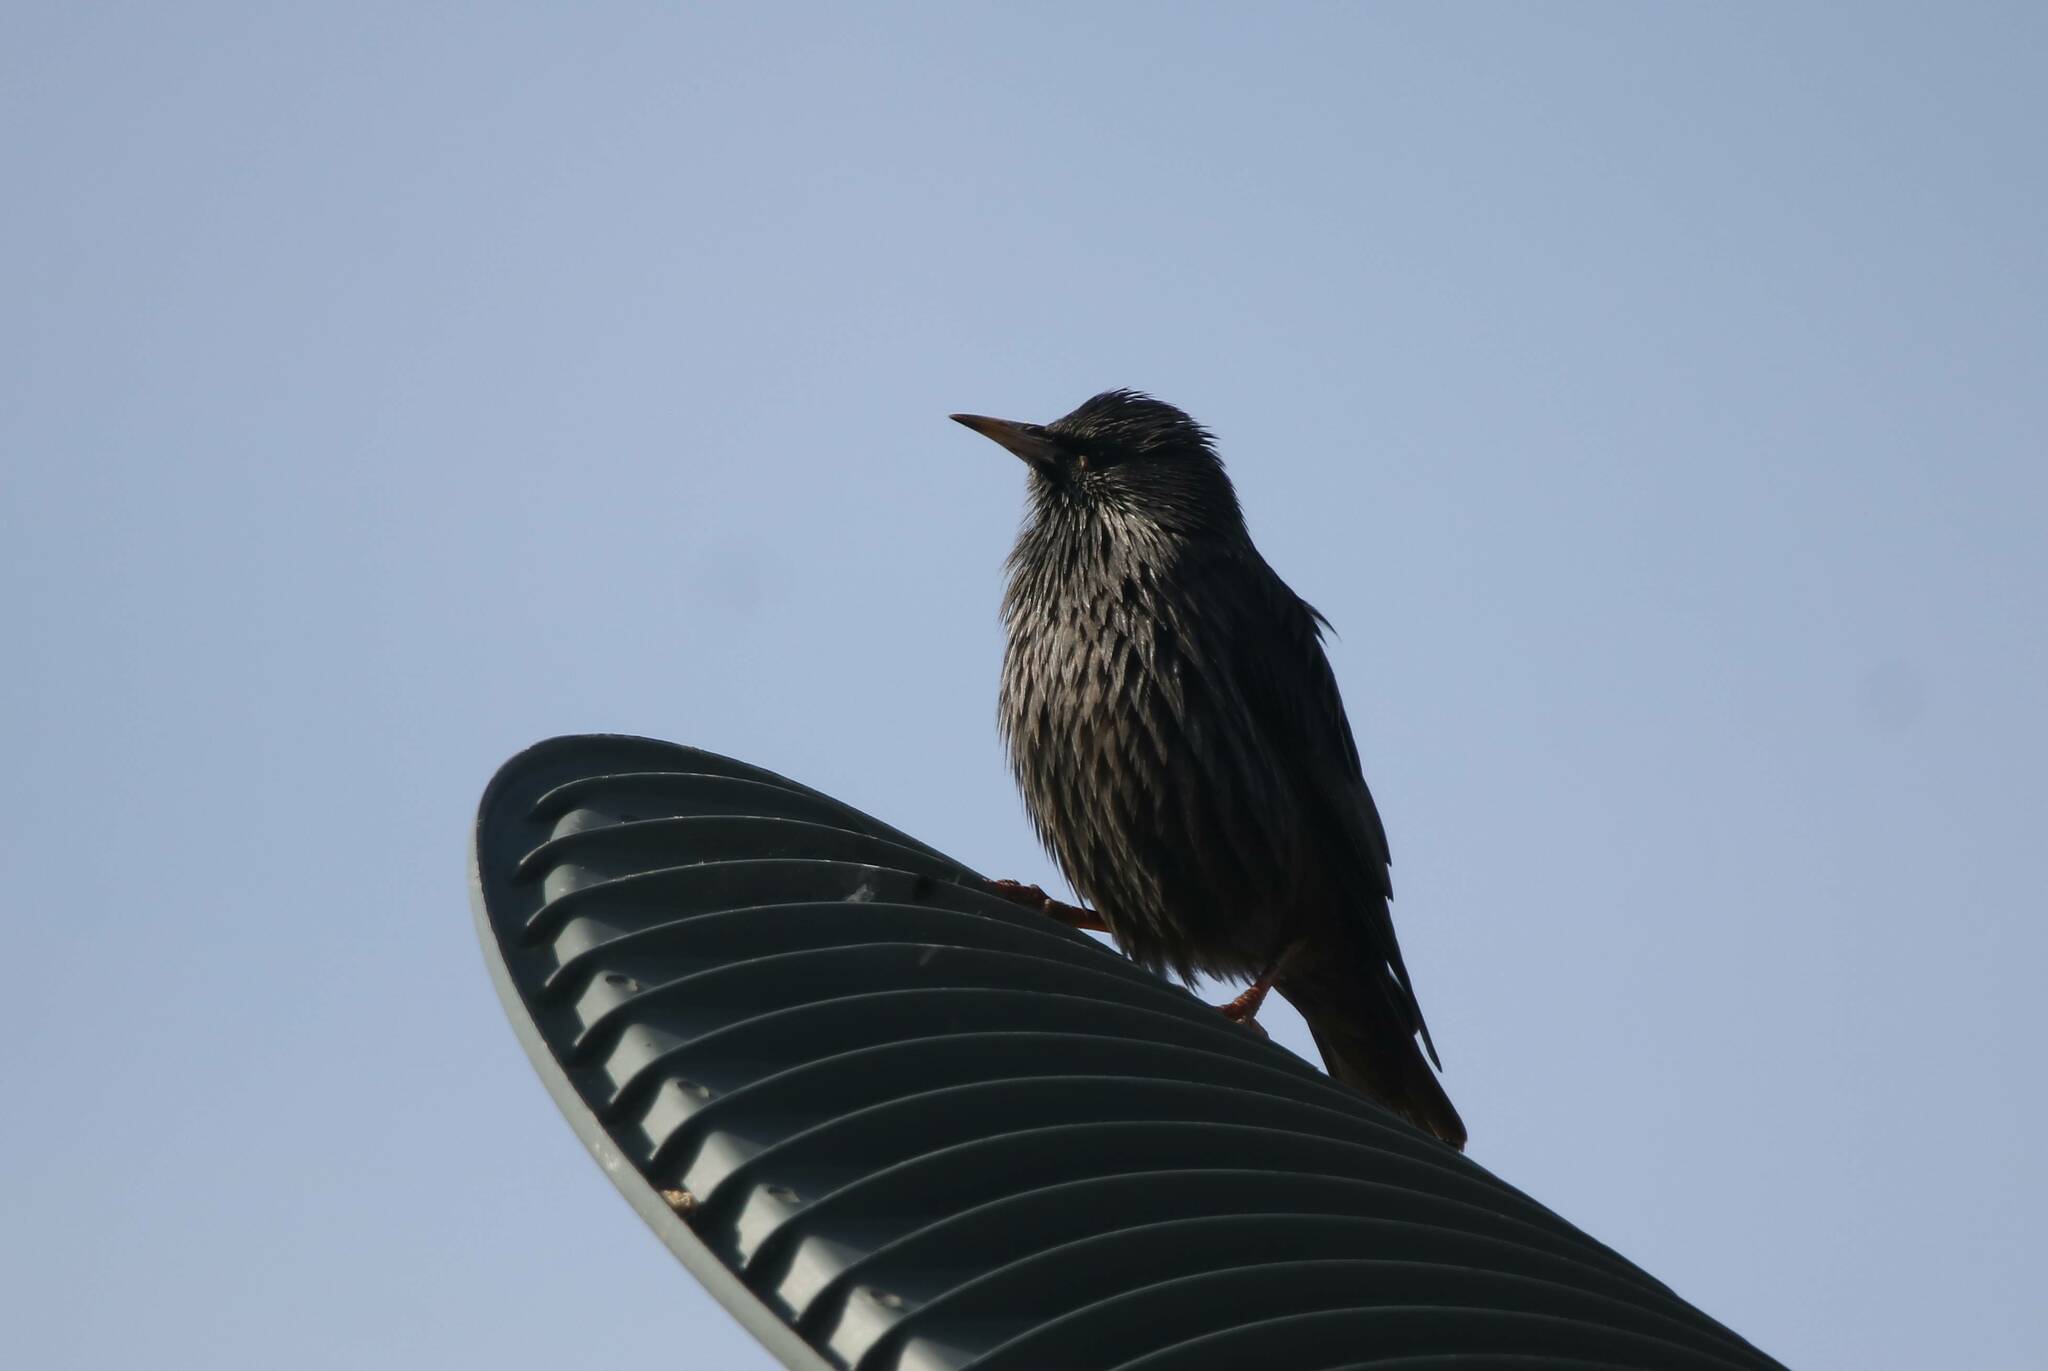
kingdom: Animalia
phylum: Chordata
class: Aves
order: Passeriformes
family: Sturnidae
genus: Sturnus
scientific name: Sturnus unicolor
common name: Spotless starling
